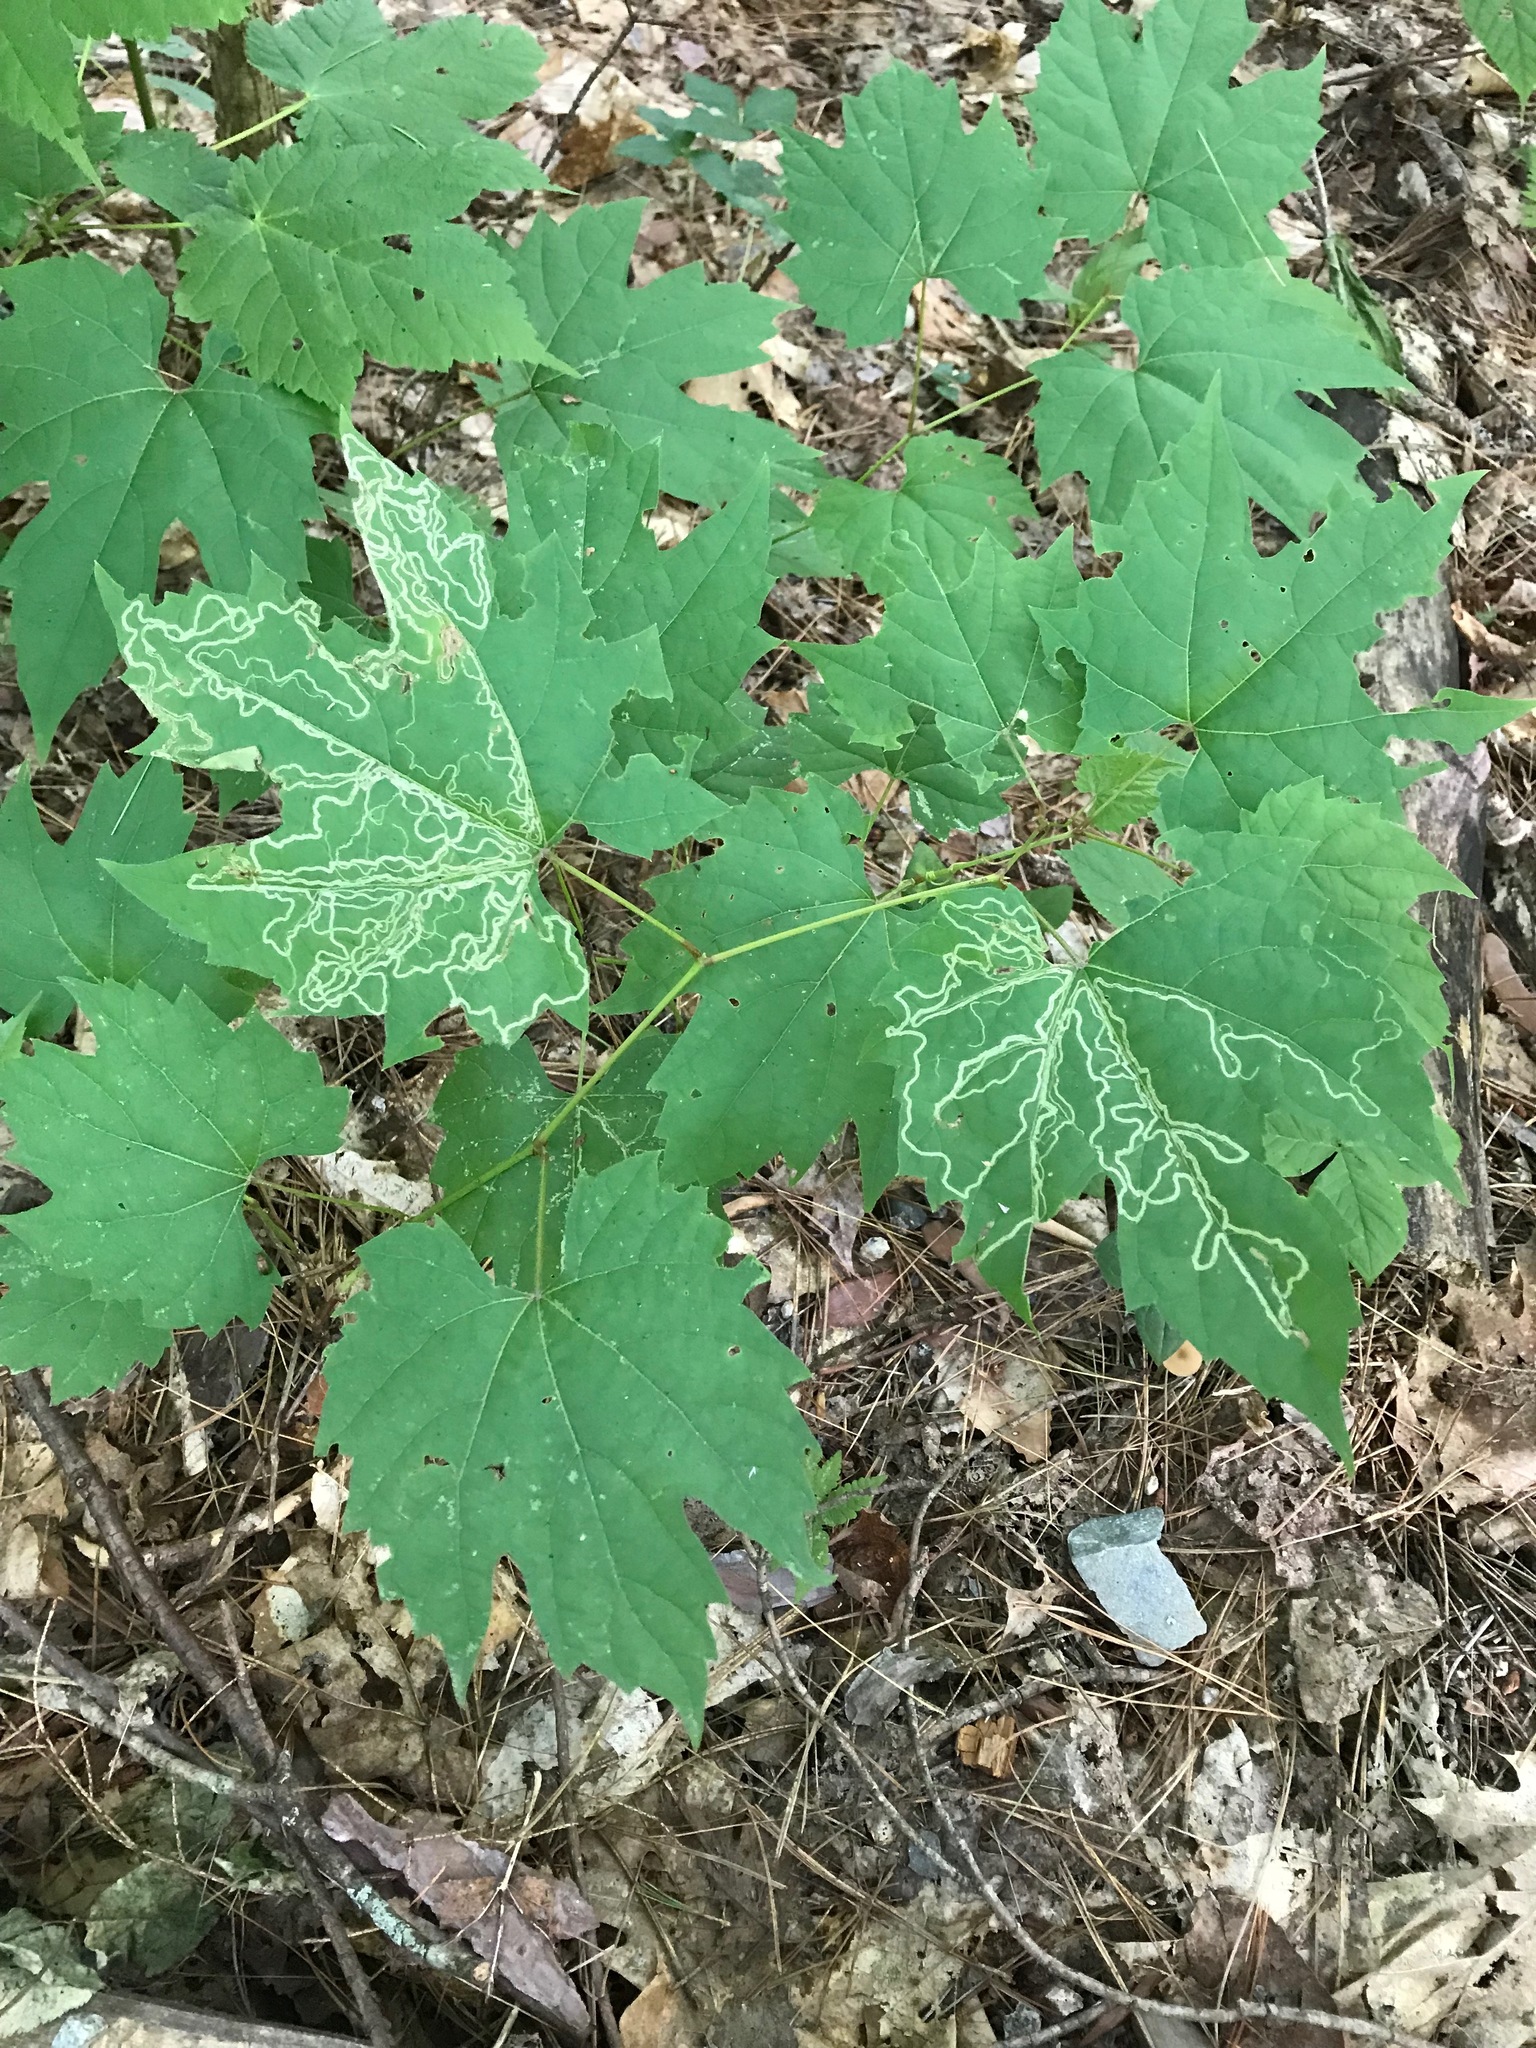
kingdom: Animalia
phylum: Arthropoda
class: Insecta
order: Lepidoptera
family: Gracillariidae
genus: Phyllocnistis
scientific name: Phyllocnistis vitifoliella
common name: Grape leaf-miner moth
